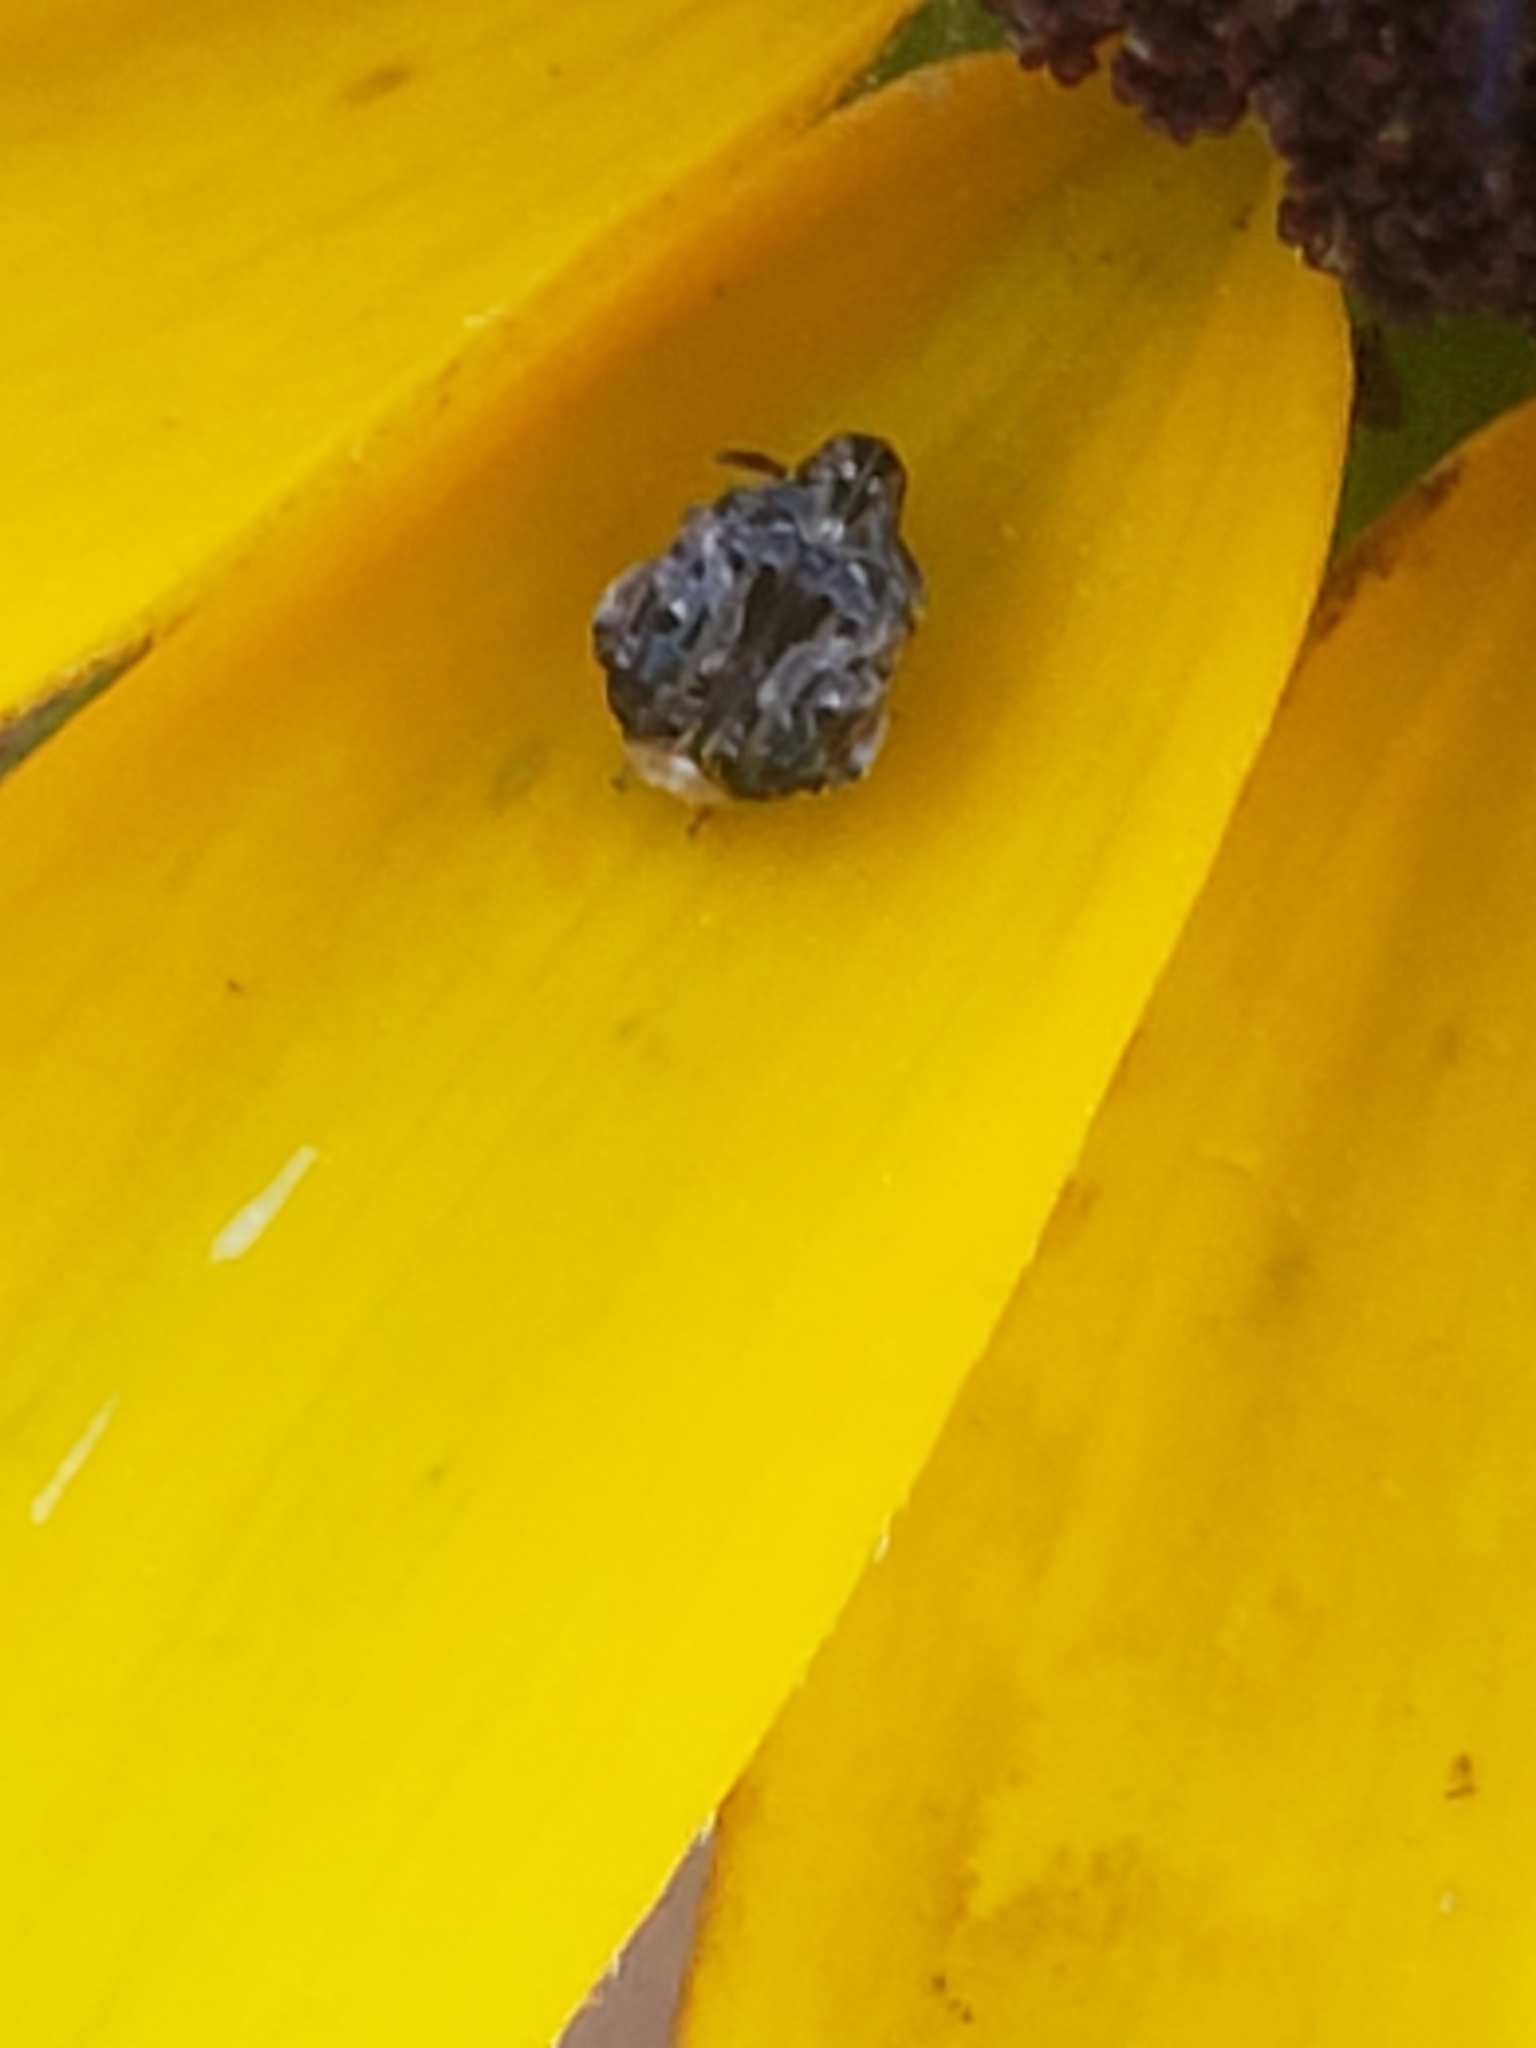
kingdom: Animalia
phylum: Arthropoda
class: Insecta
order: Coleoptera
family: Chrysomelidae
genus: Gibbobruchus
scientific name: Gibbobruchus mimus
